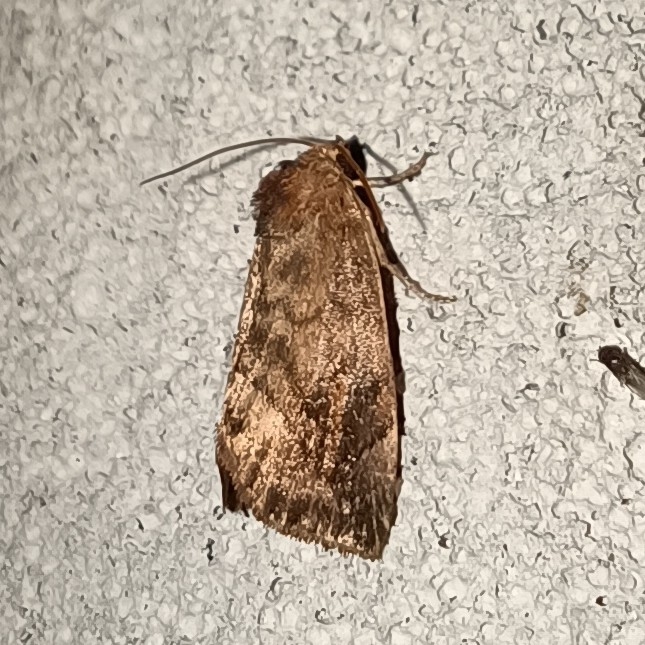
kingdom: Animalia
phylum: Arthropoda
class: Insecta
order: Lepidoptera
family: Noctuidae
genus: Cosmia
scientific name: Cosmia pyralina
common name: Lunar-spotted pinion
